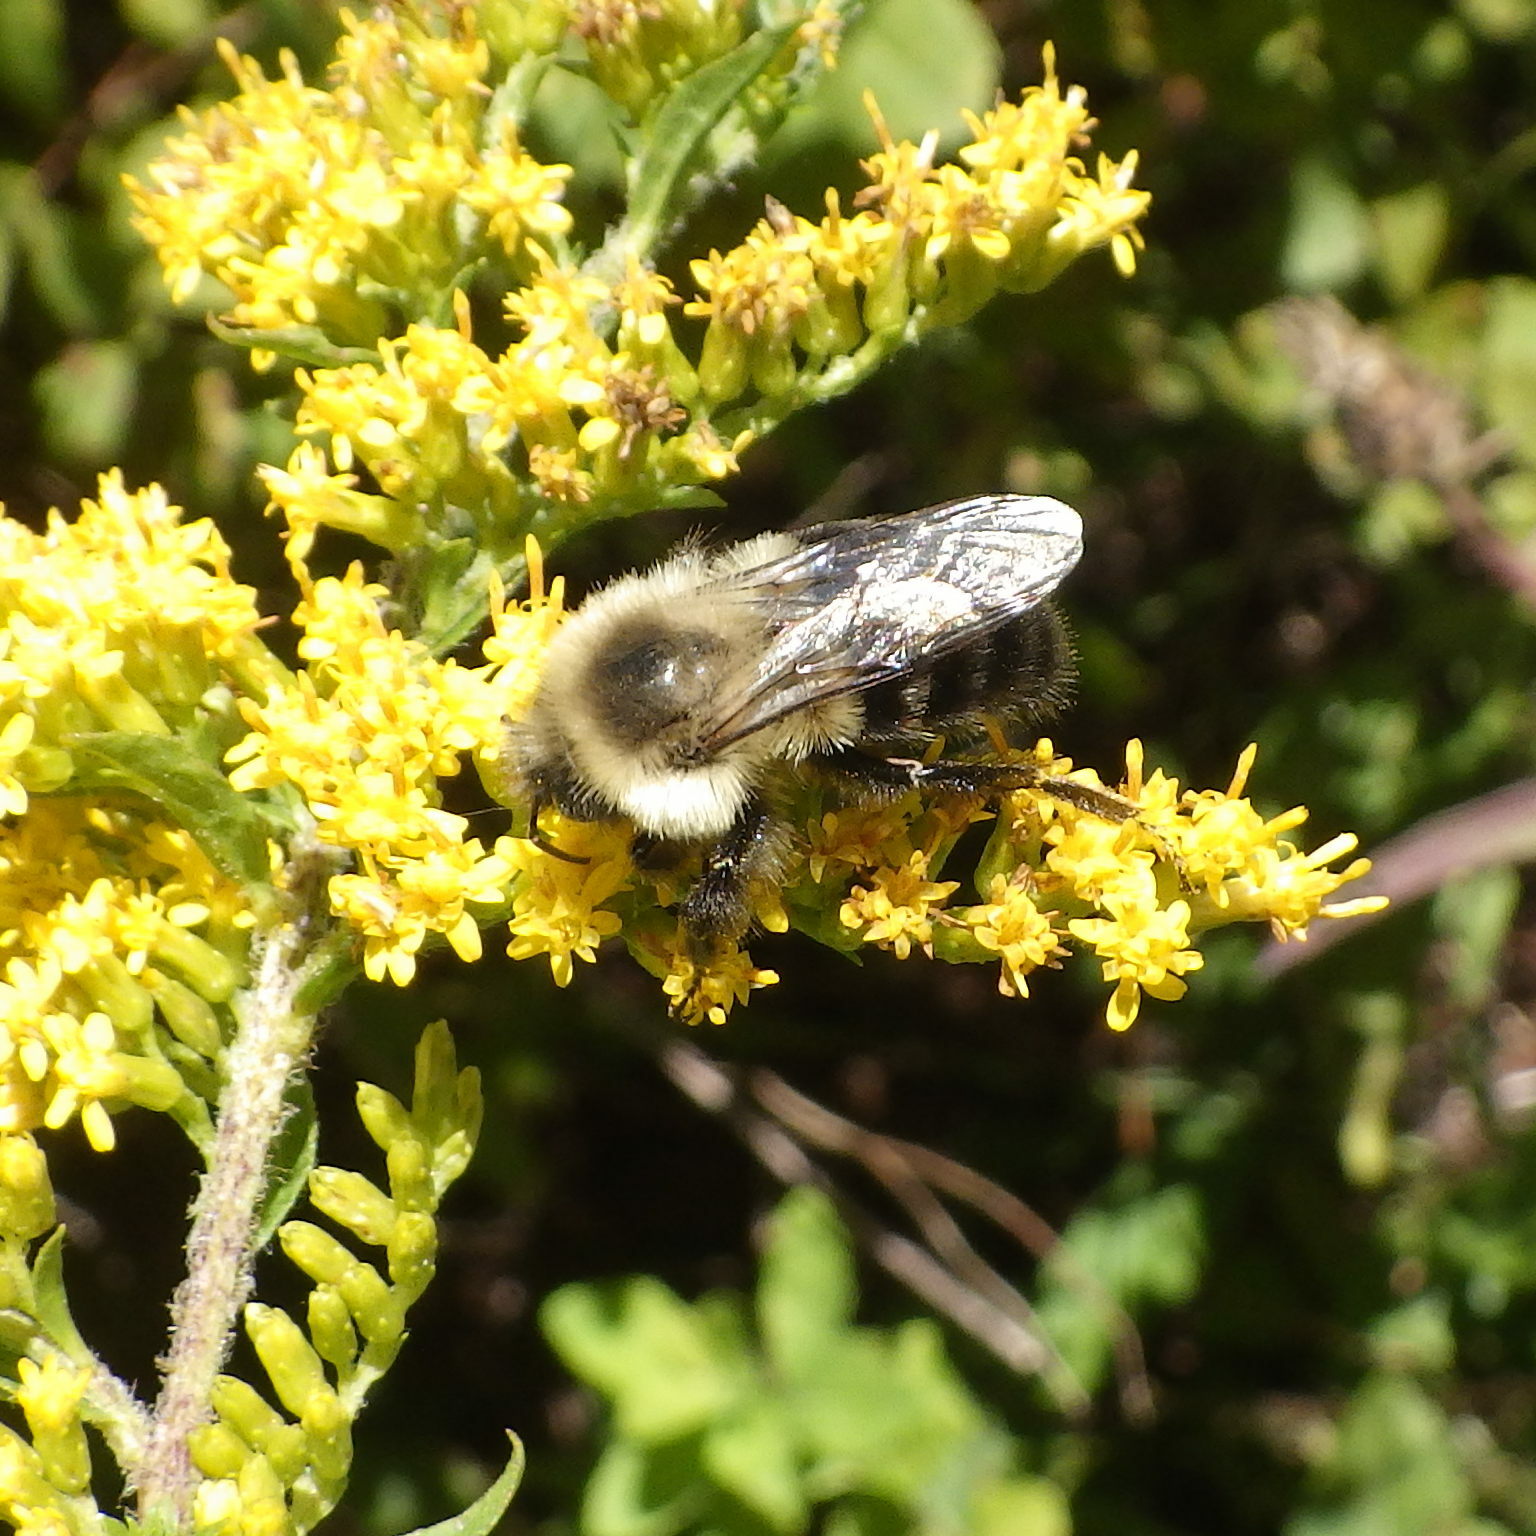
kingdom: Animalia
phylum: Arthropoda
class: Insecta
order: Hymenoptera
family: Apidae
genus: Bombus
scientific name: Bombus impatiens
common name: Common eastern bumble bee
